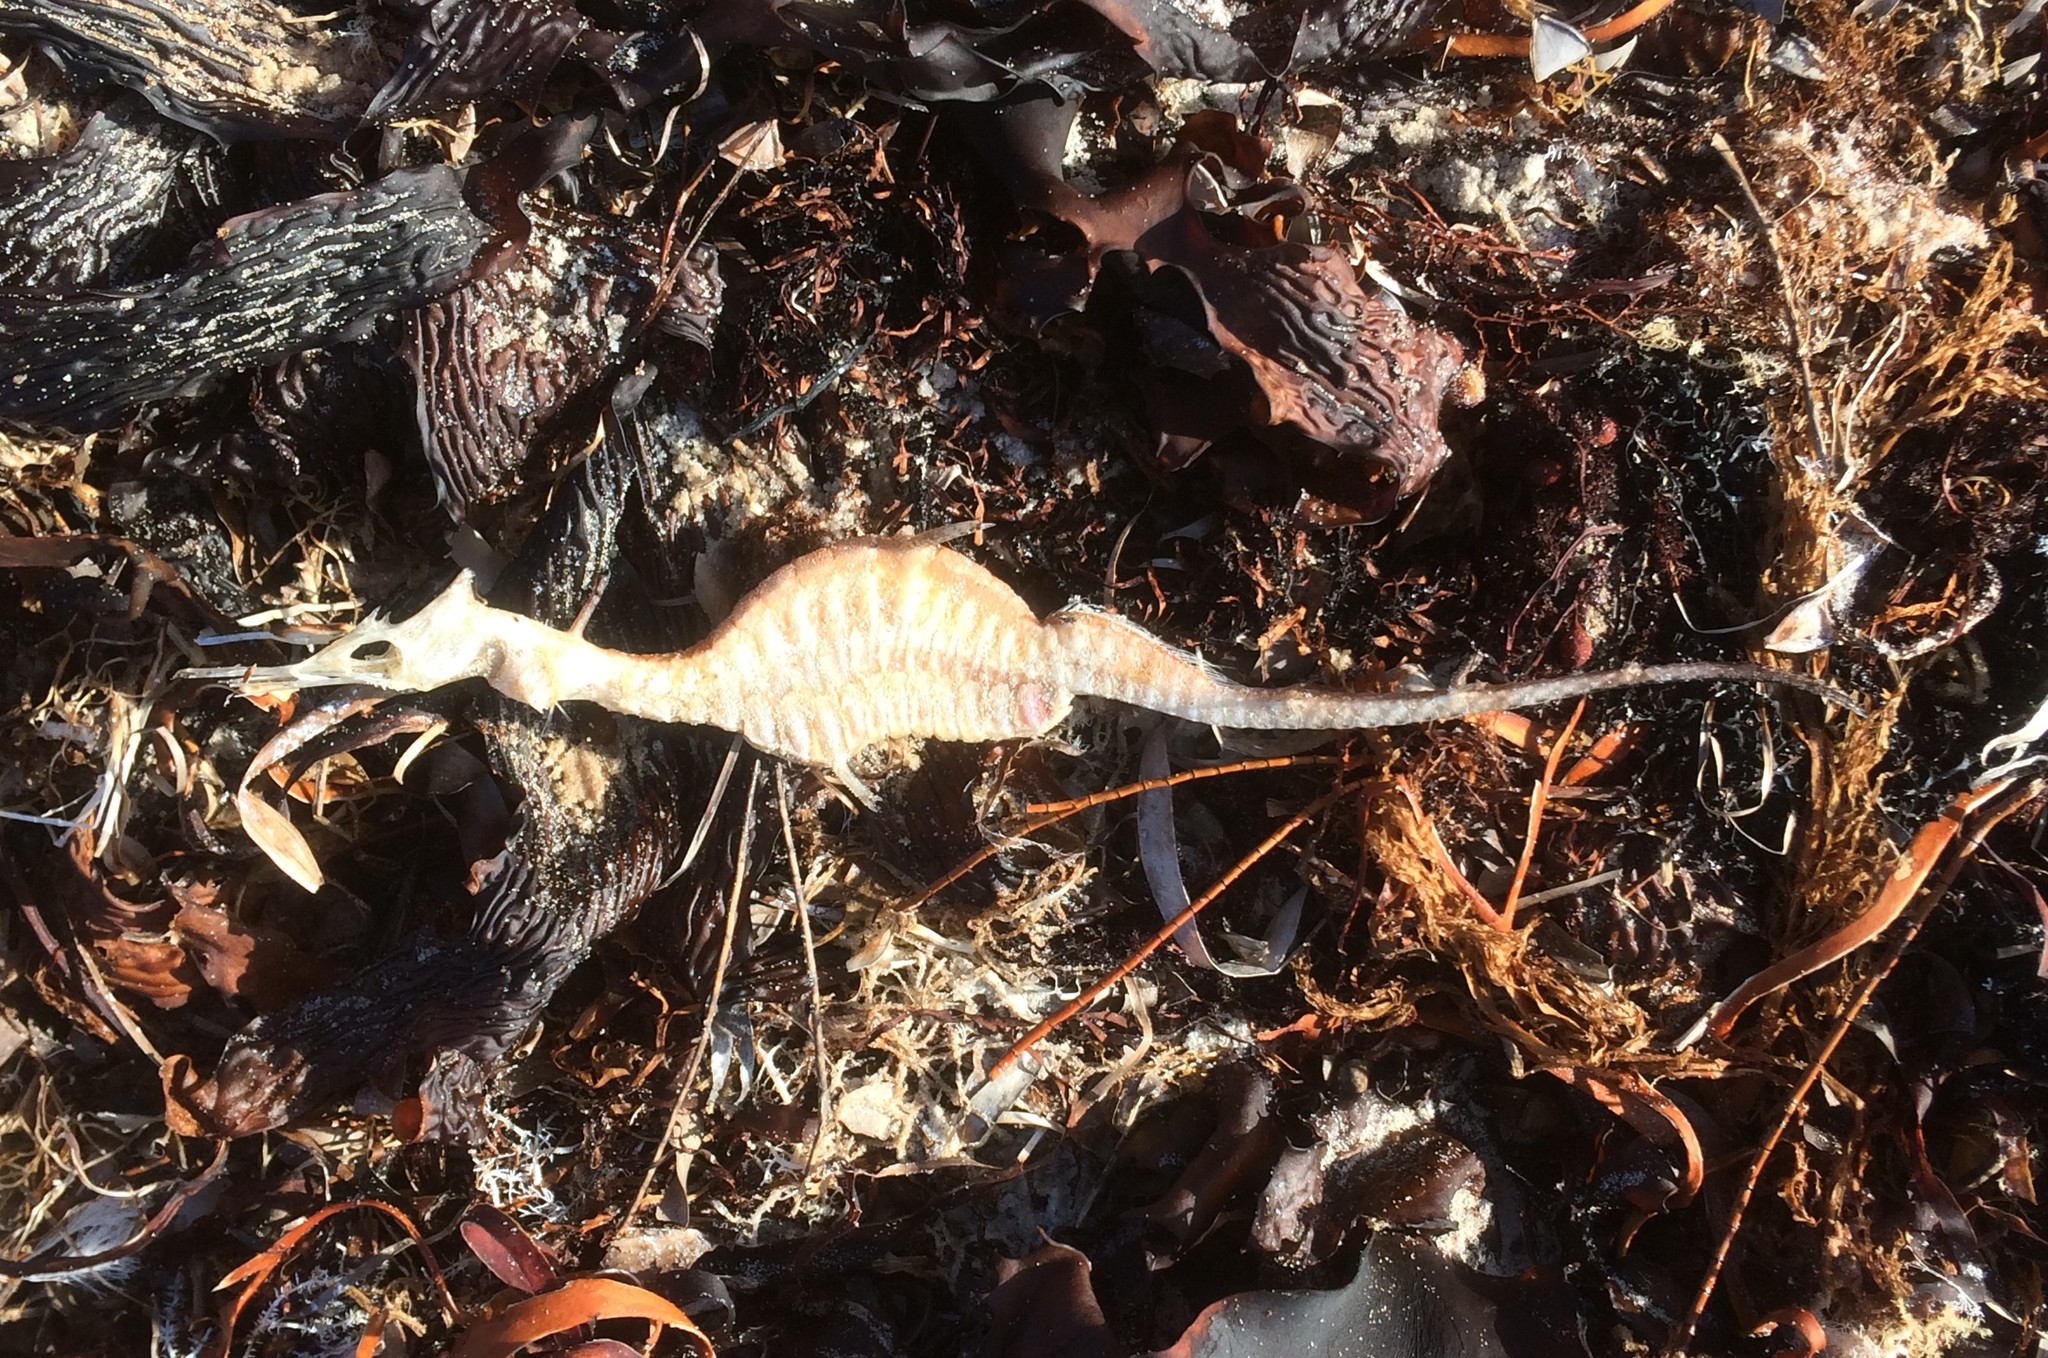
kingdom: Animalia
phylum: Chordata
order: Syngnathiformes
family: Syngnathidae
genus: Phyllopteryx
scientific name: Phyllopteryx taeniolatus
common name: Common seadragon
